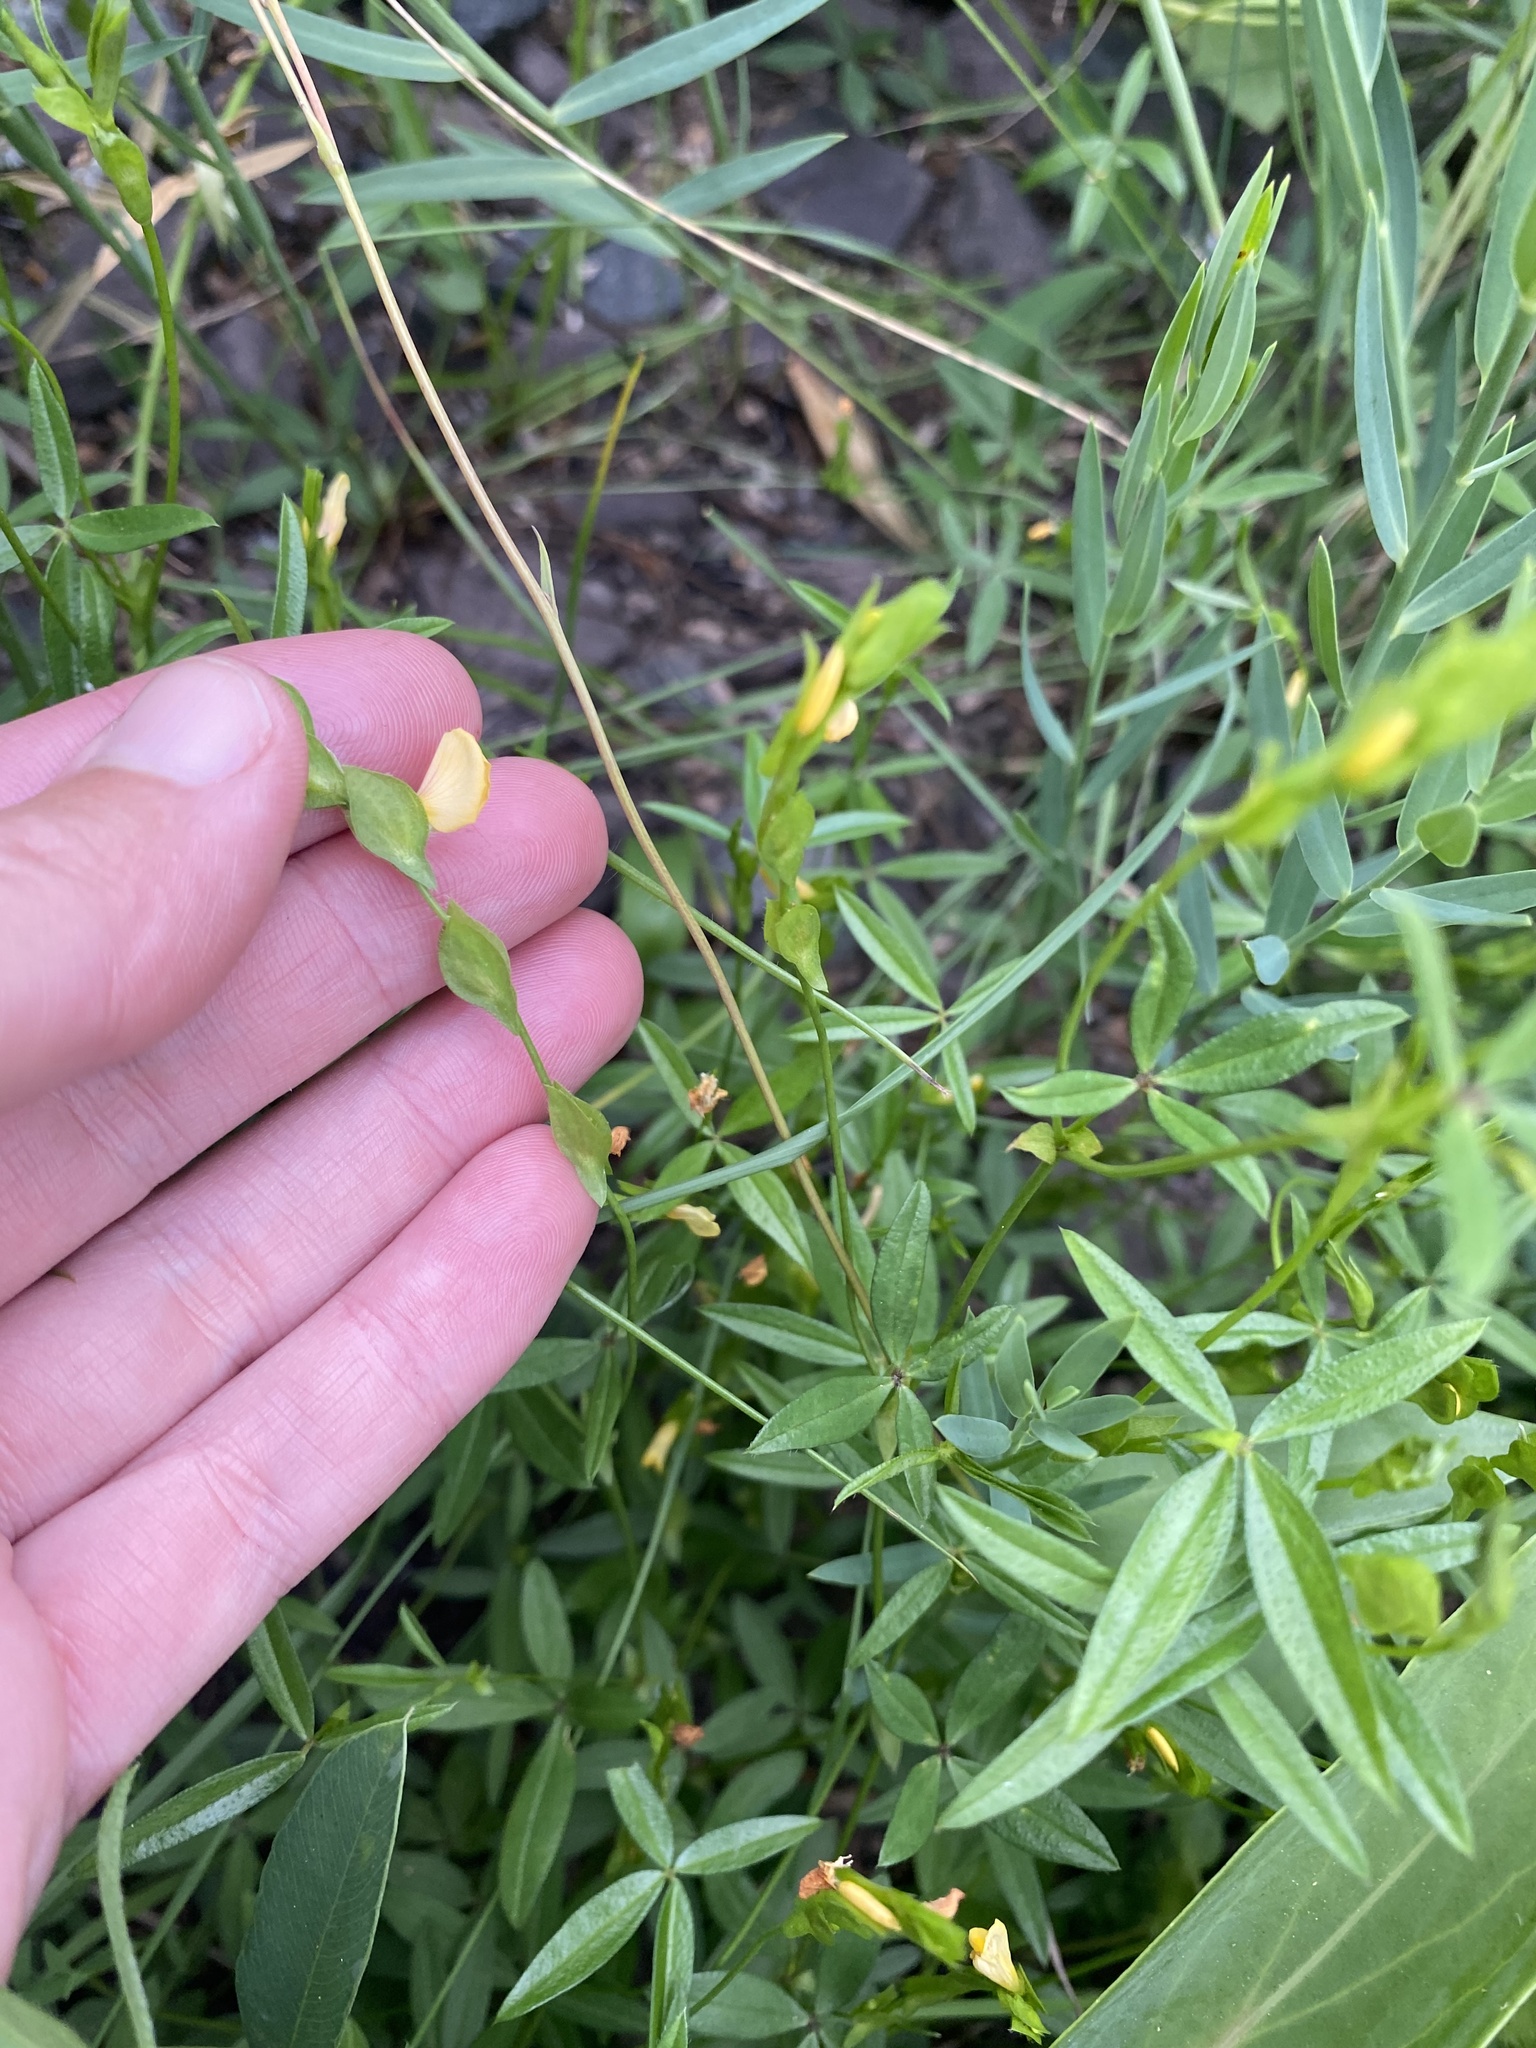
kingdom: Plantae
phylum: Tracheophyta
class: Magnoliopsida
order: Fabales
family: Fabaceae
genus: Zornia
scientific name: Zornia bracteata
